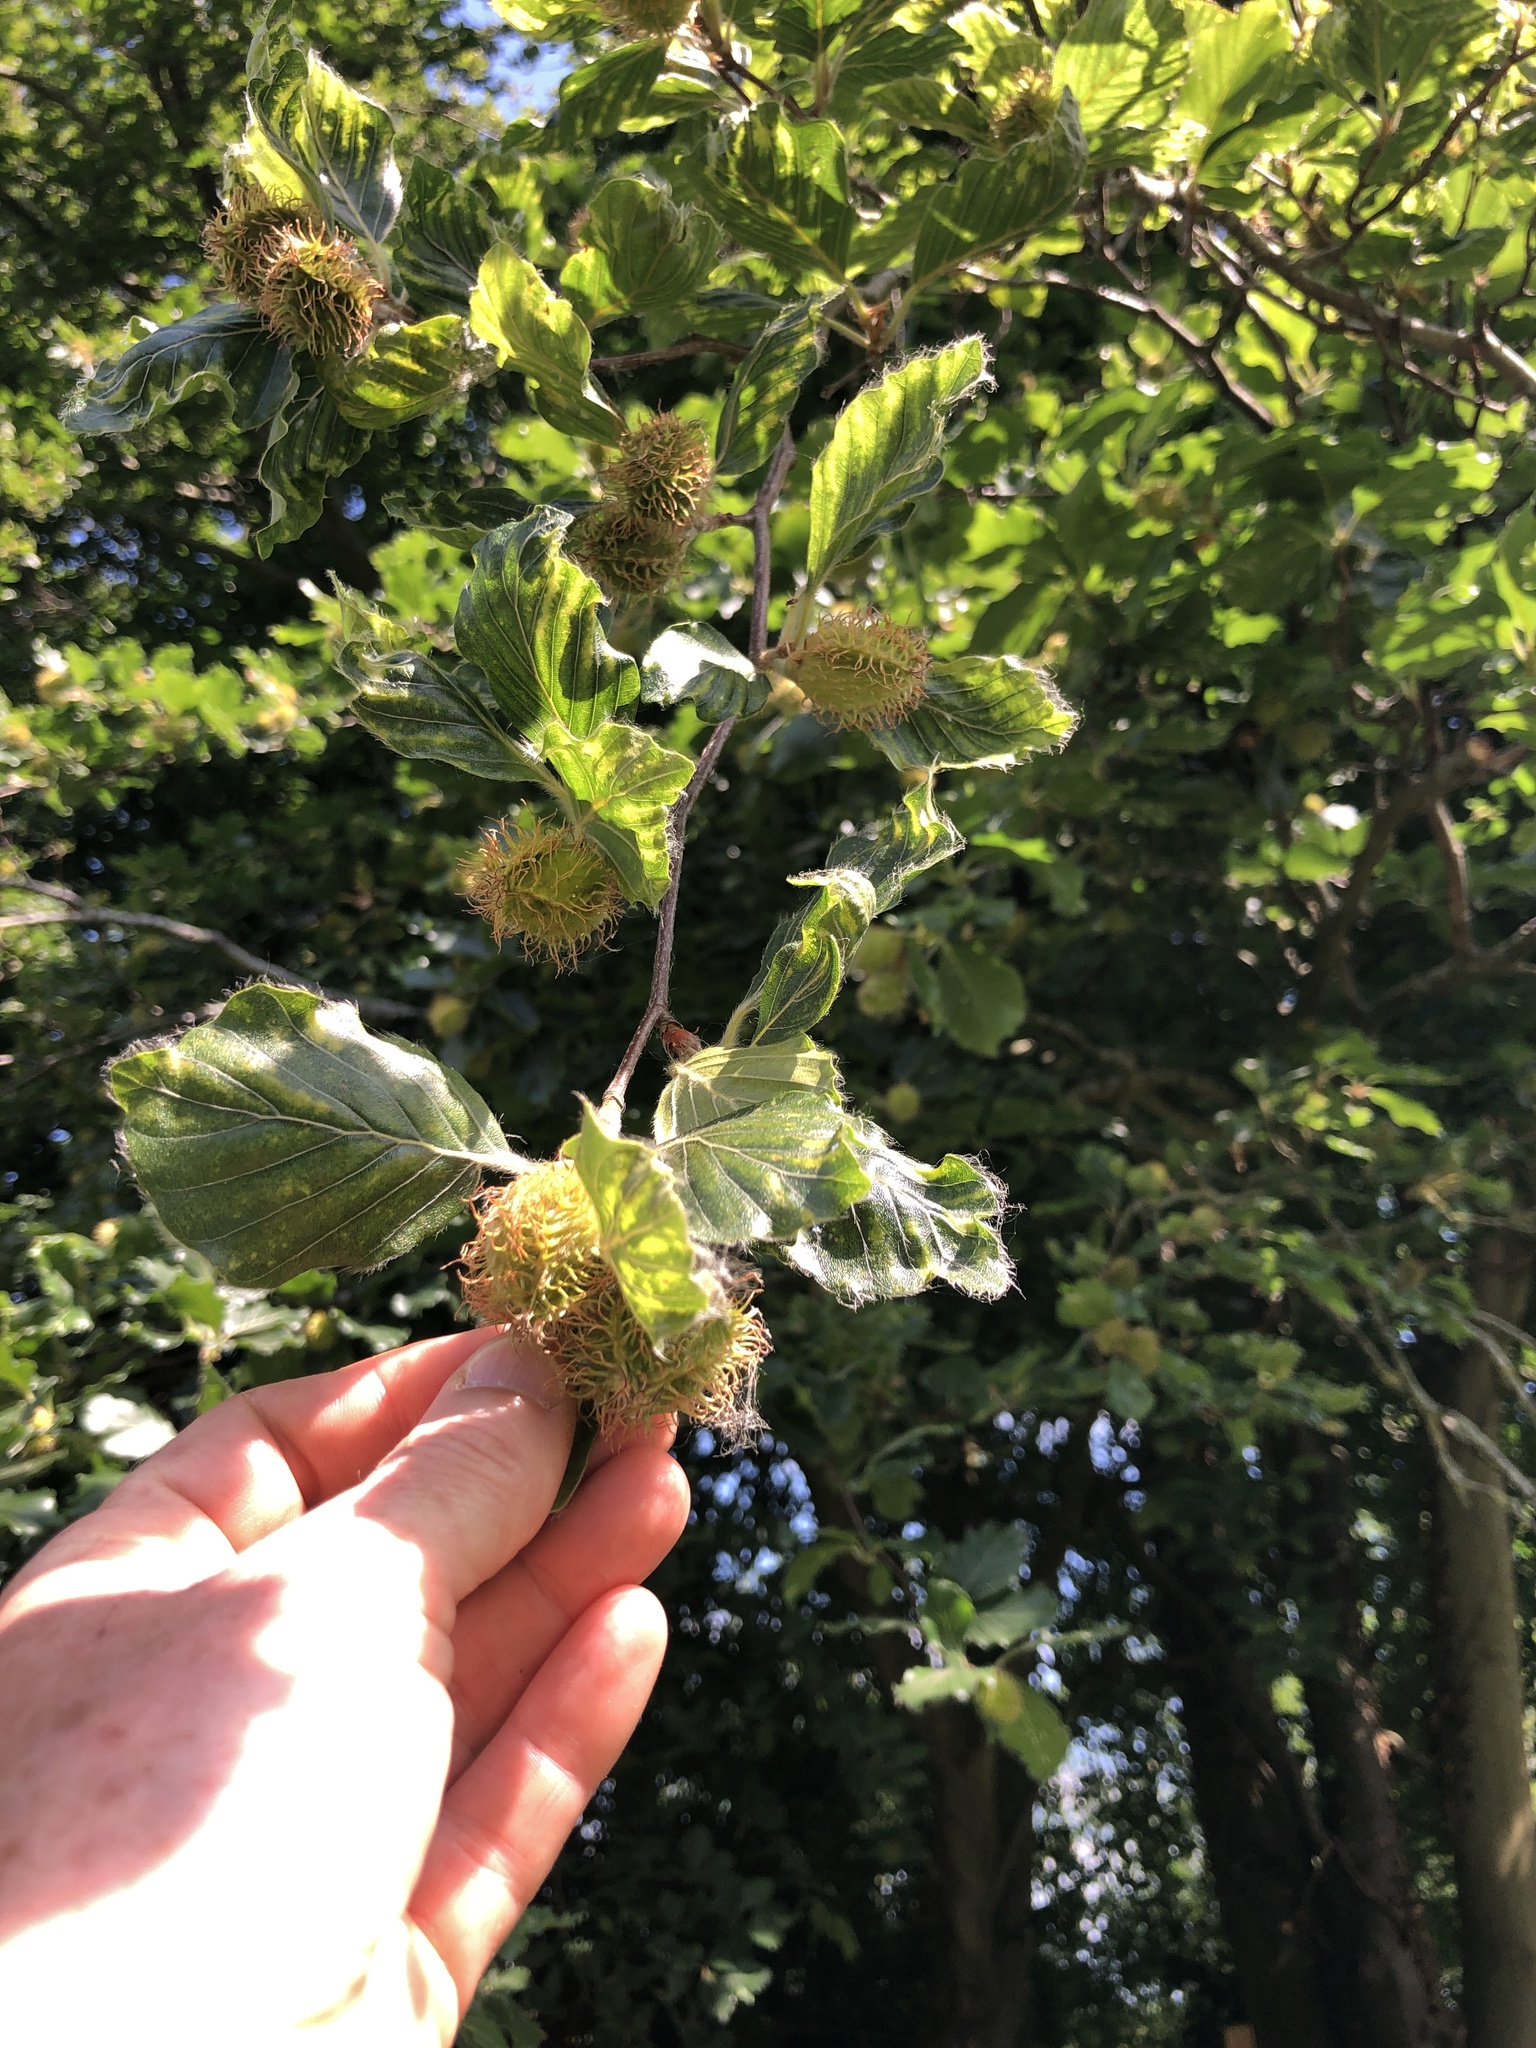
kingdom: Plantae
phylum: Tracheophyta
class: Magnoliopsida
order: Fagales
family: Fagaceae
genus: Fagus
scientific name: Fagus sylvatica
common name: Beech
